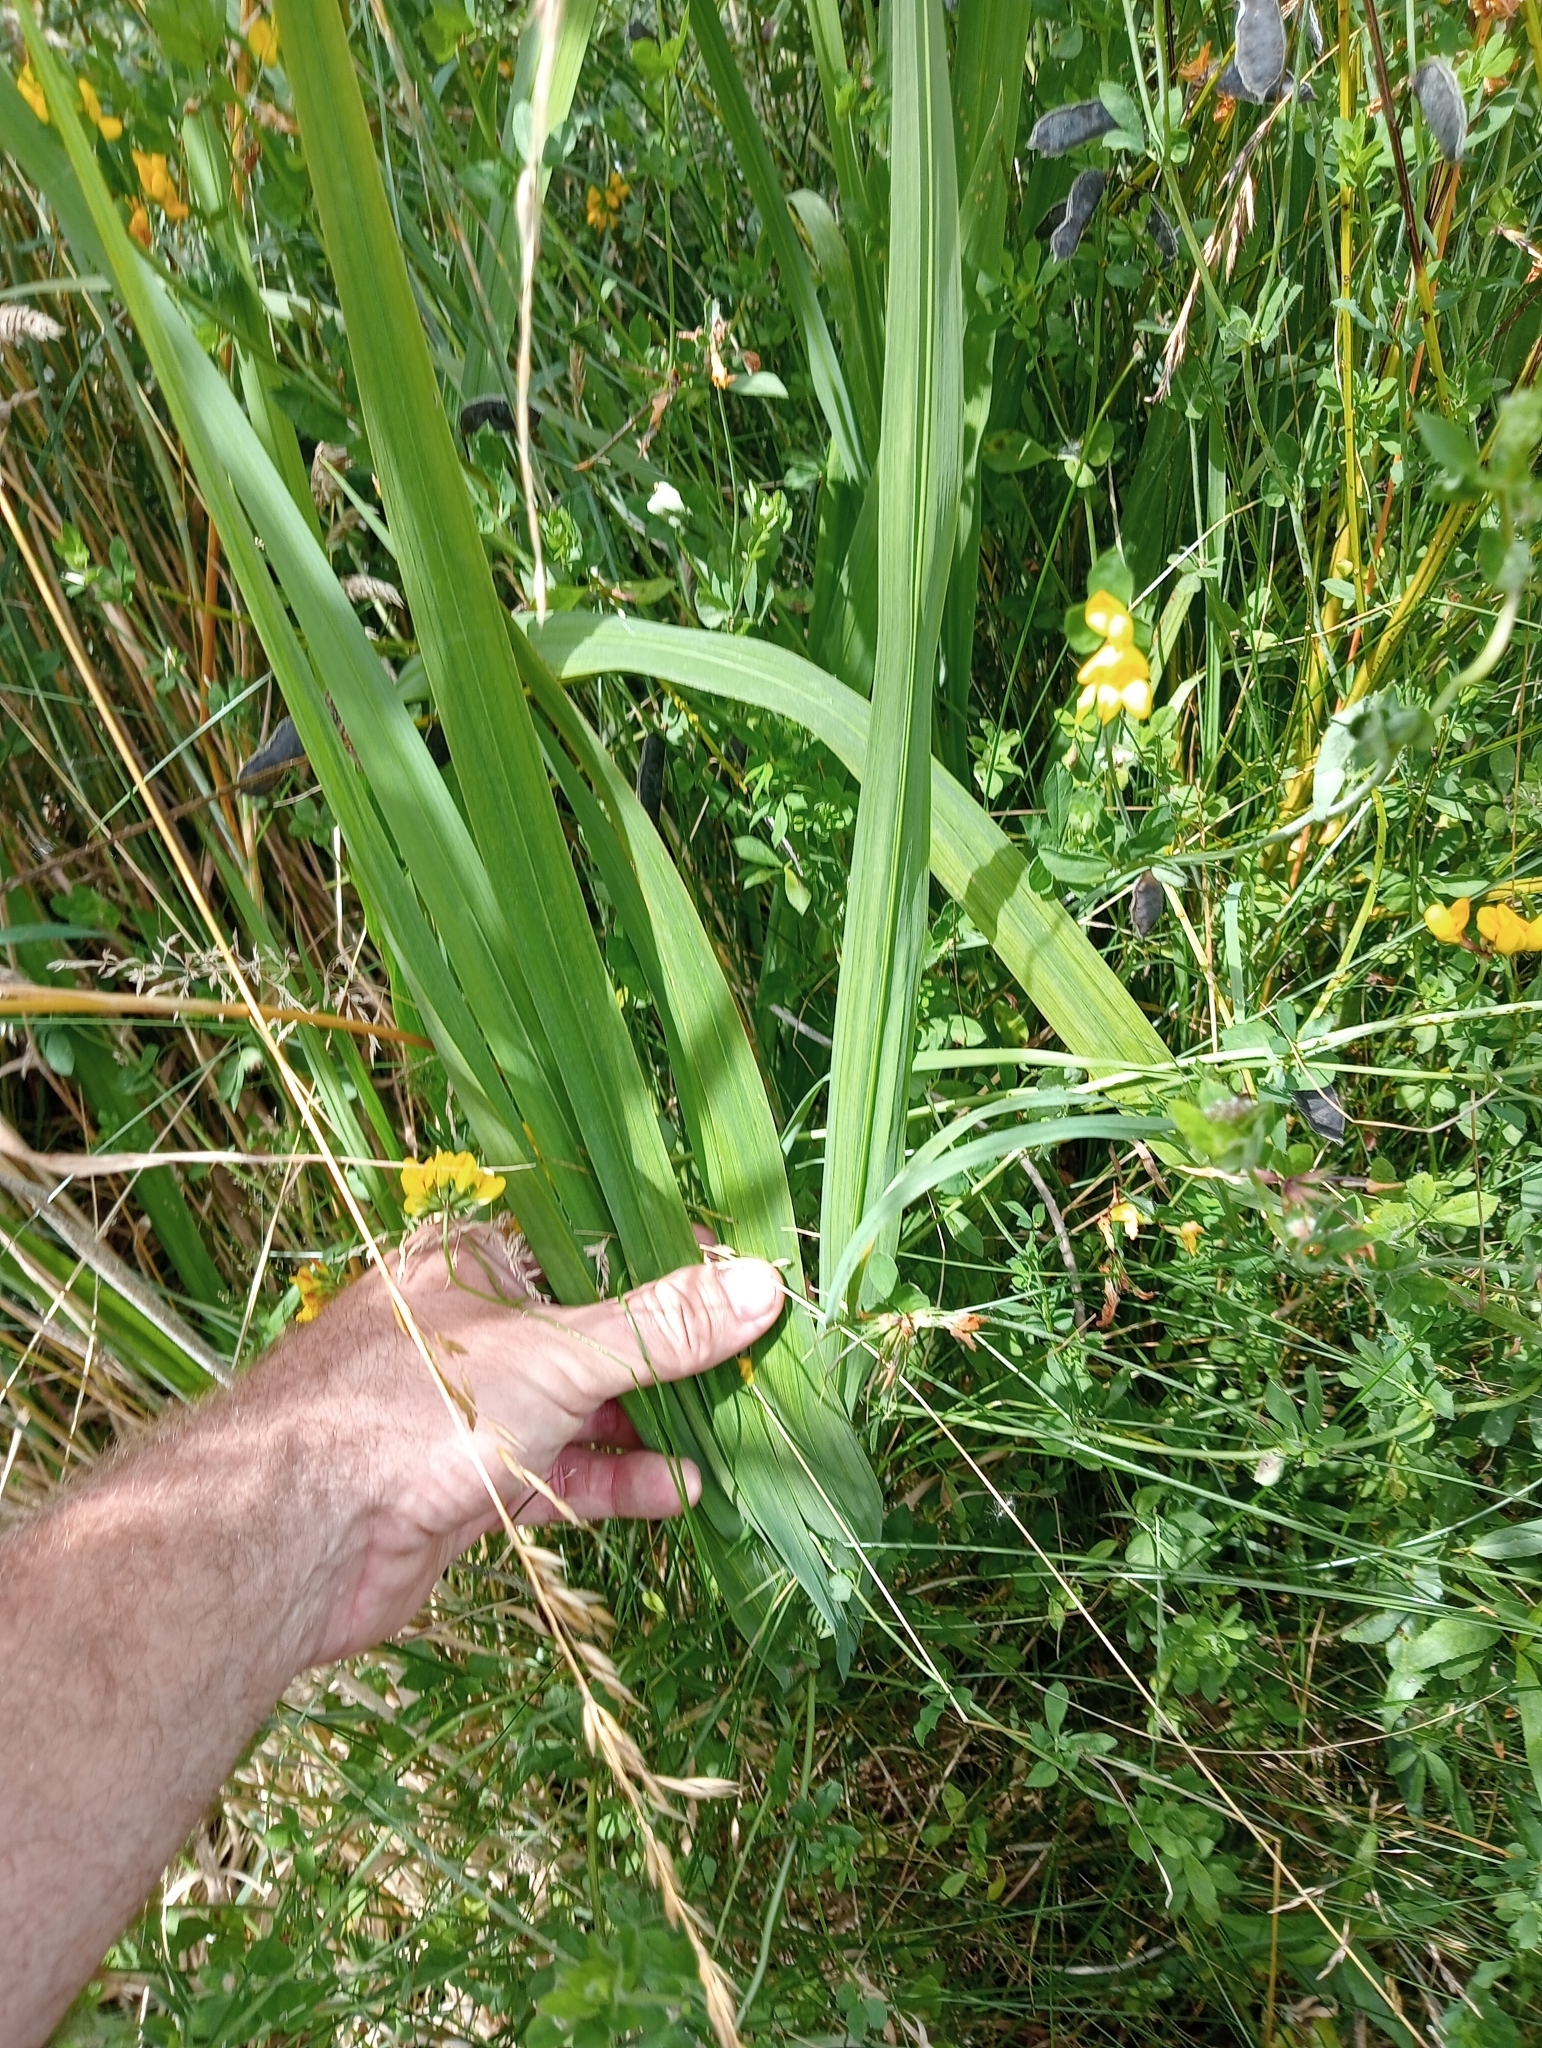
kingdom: Plantae
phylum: Tracheophyta
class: Liliopsida
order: Asparagales
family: Iridaceae
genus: Crocosmia
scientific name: Crocosmia crocosmiiflora
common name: Montbretia
